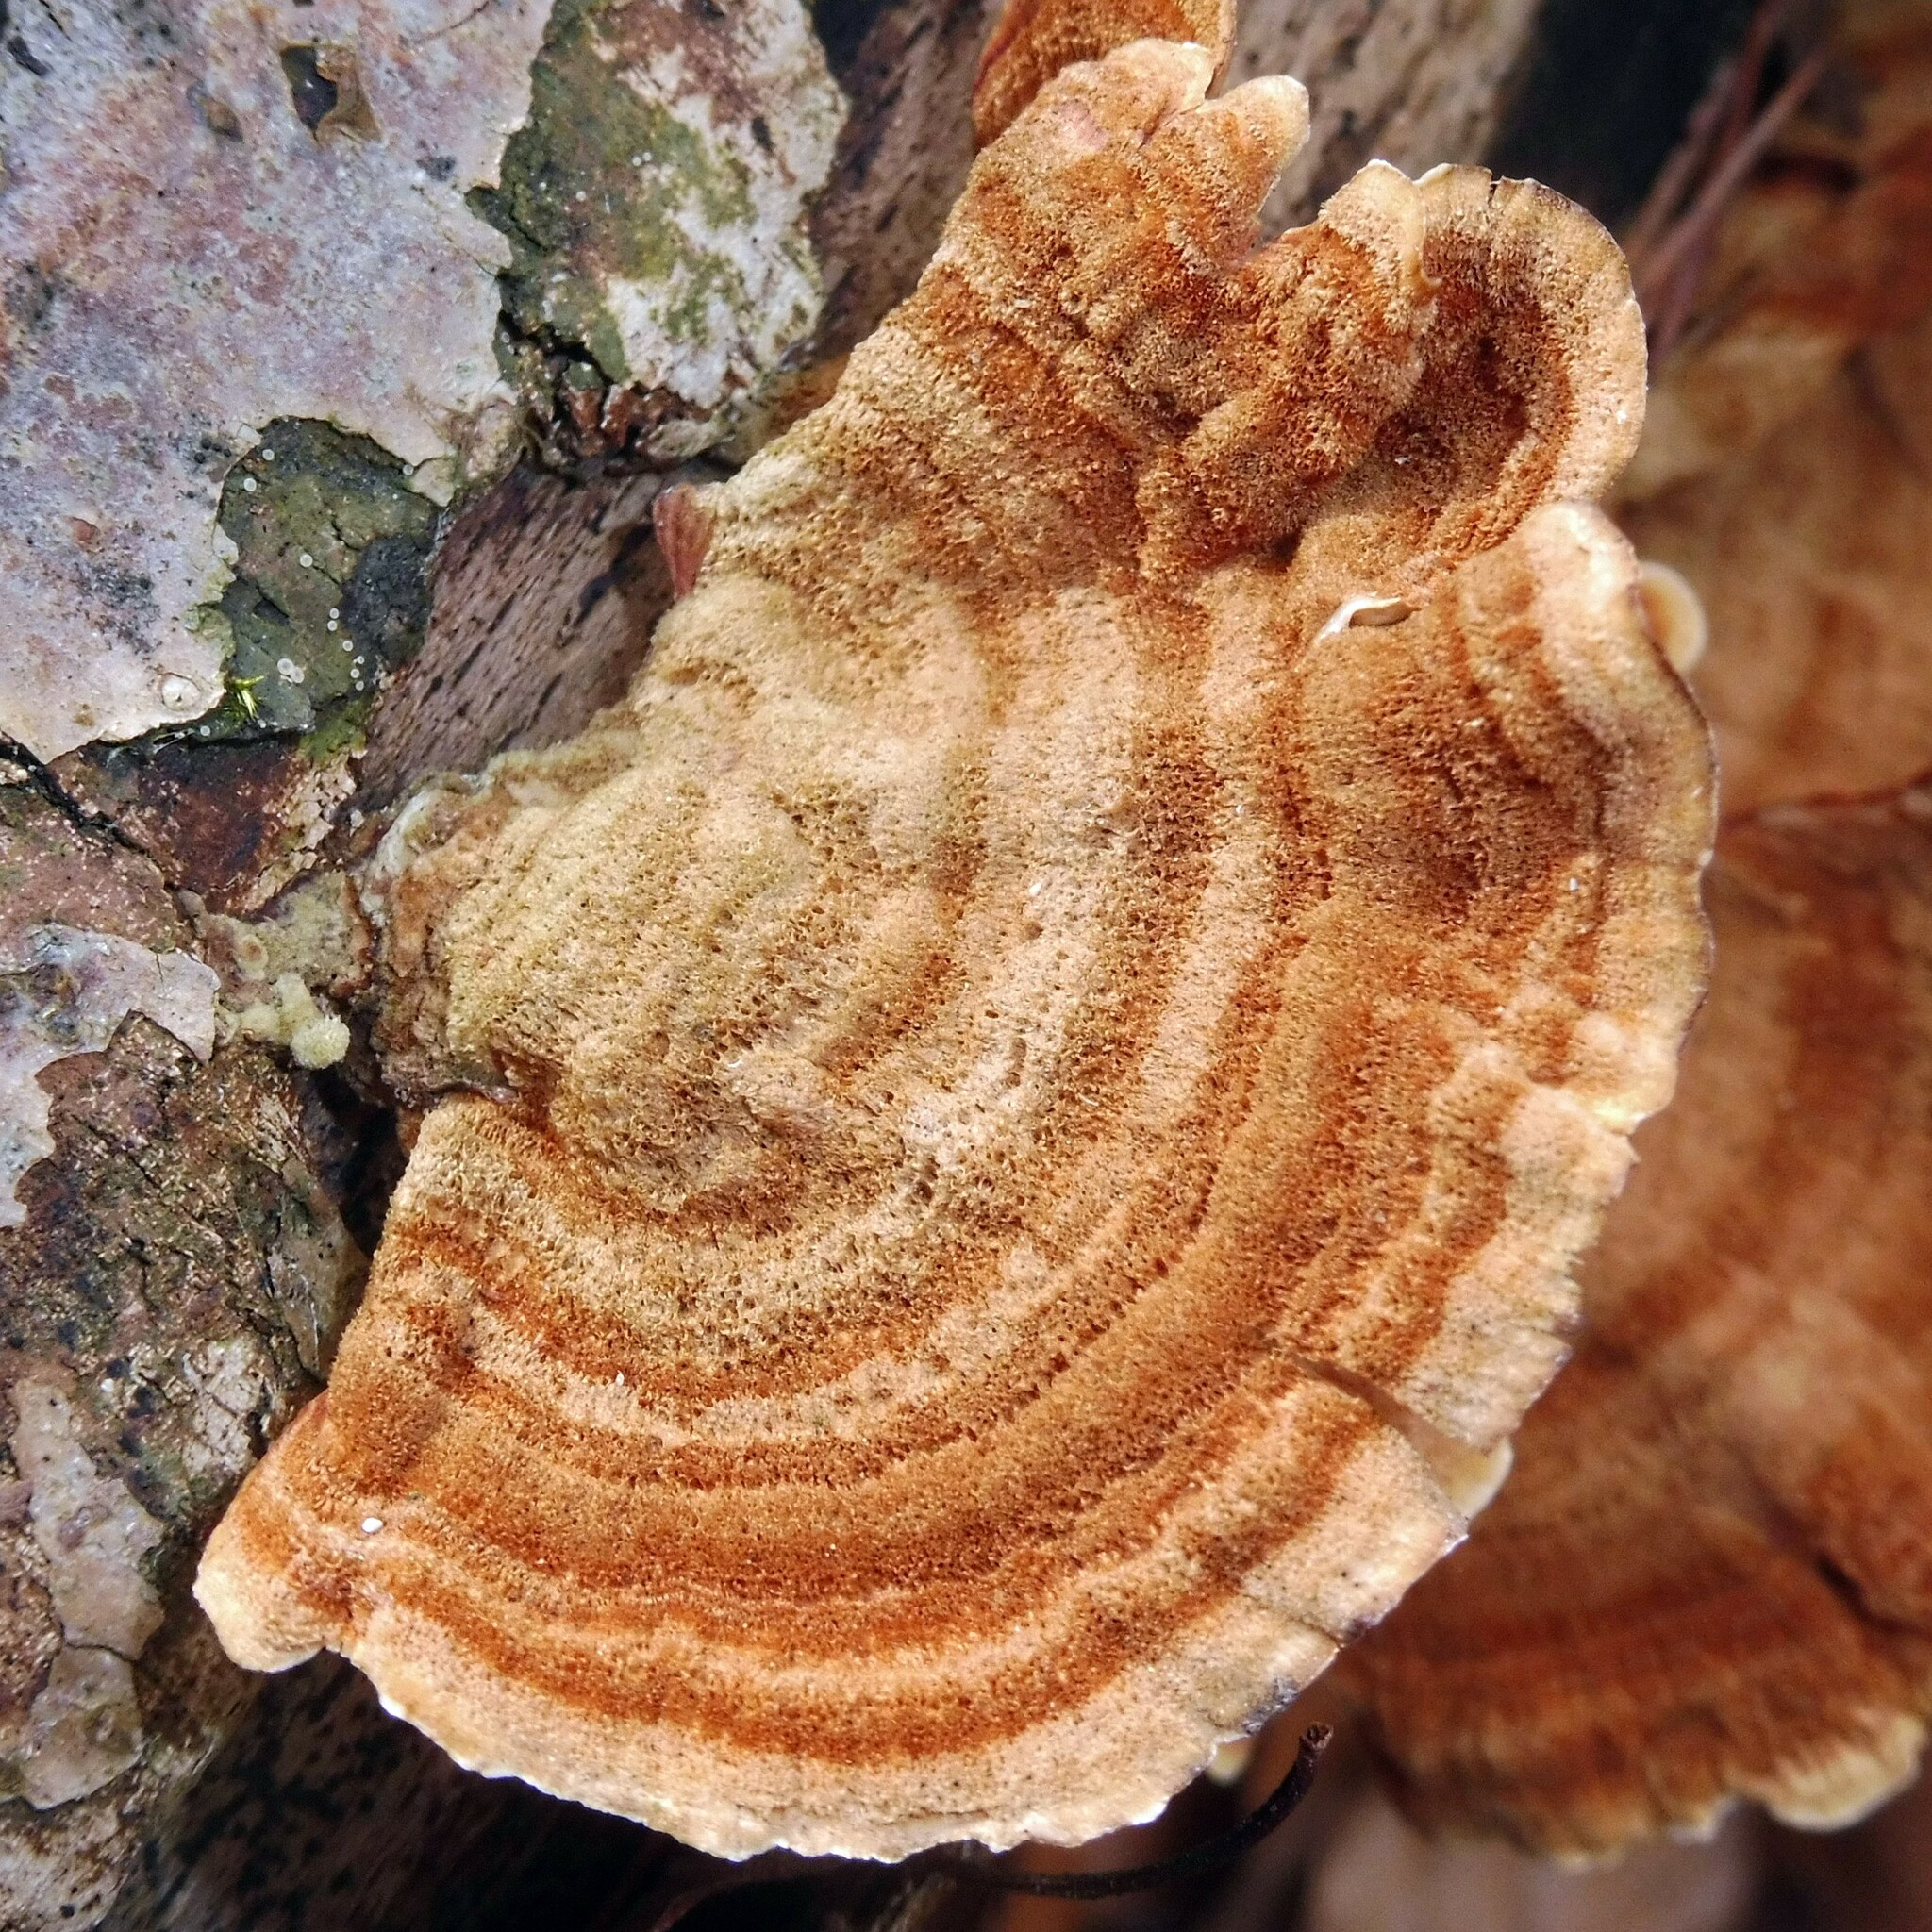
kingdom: Fungi
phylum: Basidiomycota
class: Agaricomycetes
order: Russulales
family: Stereaceae
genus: Stereum
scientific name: Stereum subtomentosum
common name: Yellowing curtain crust
